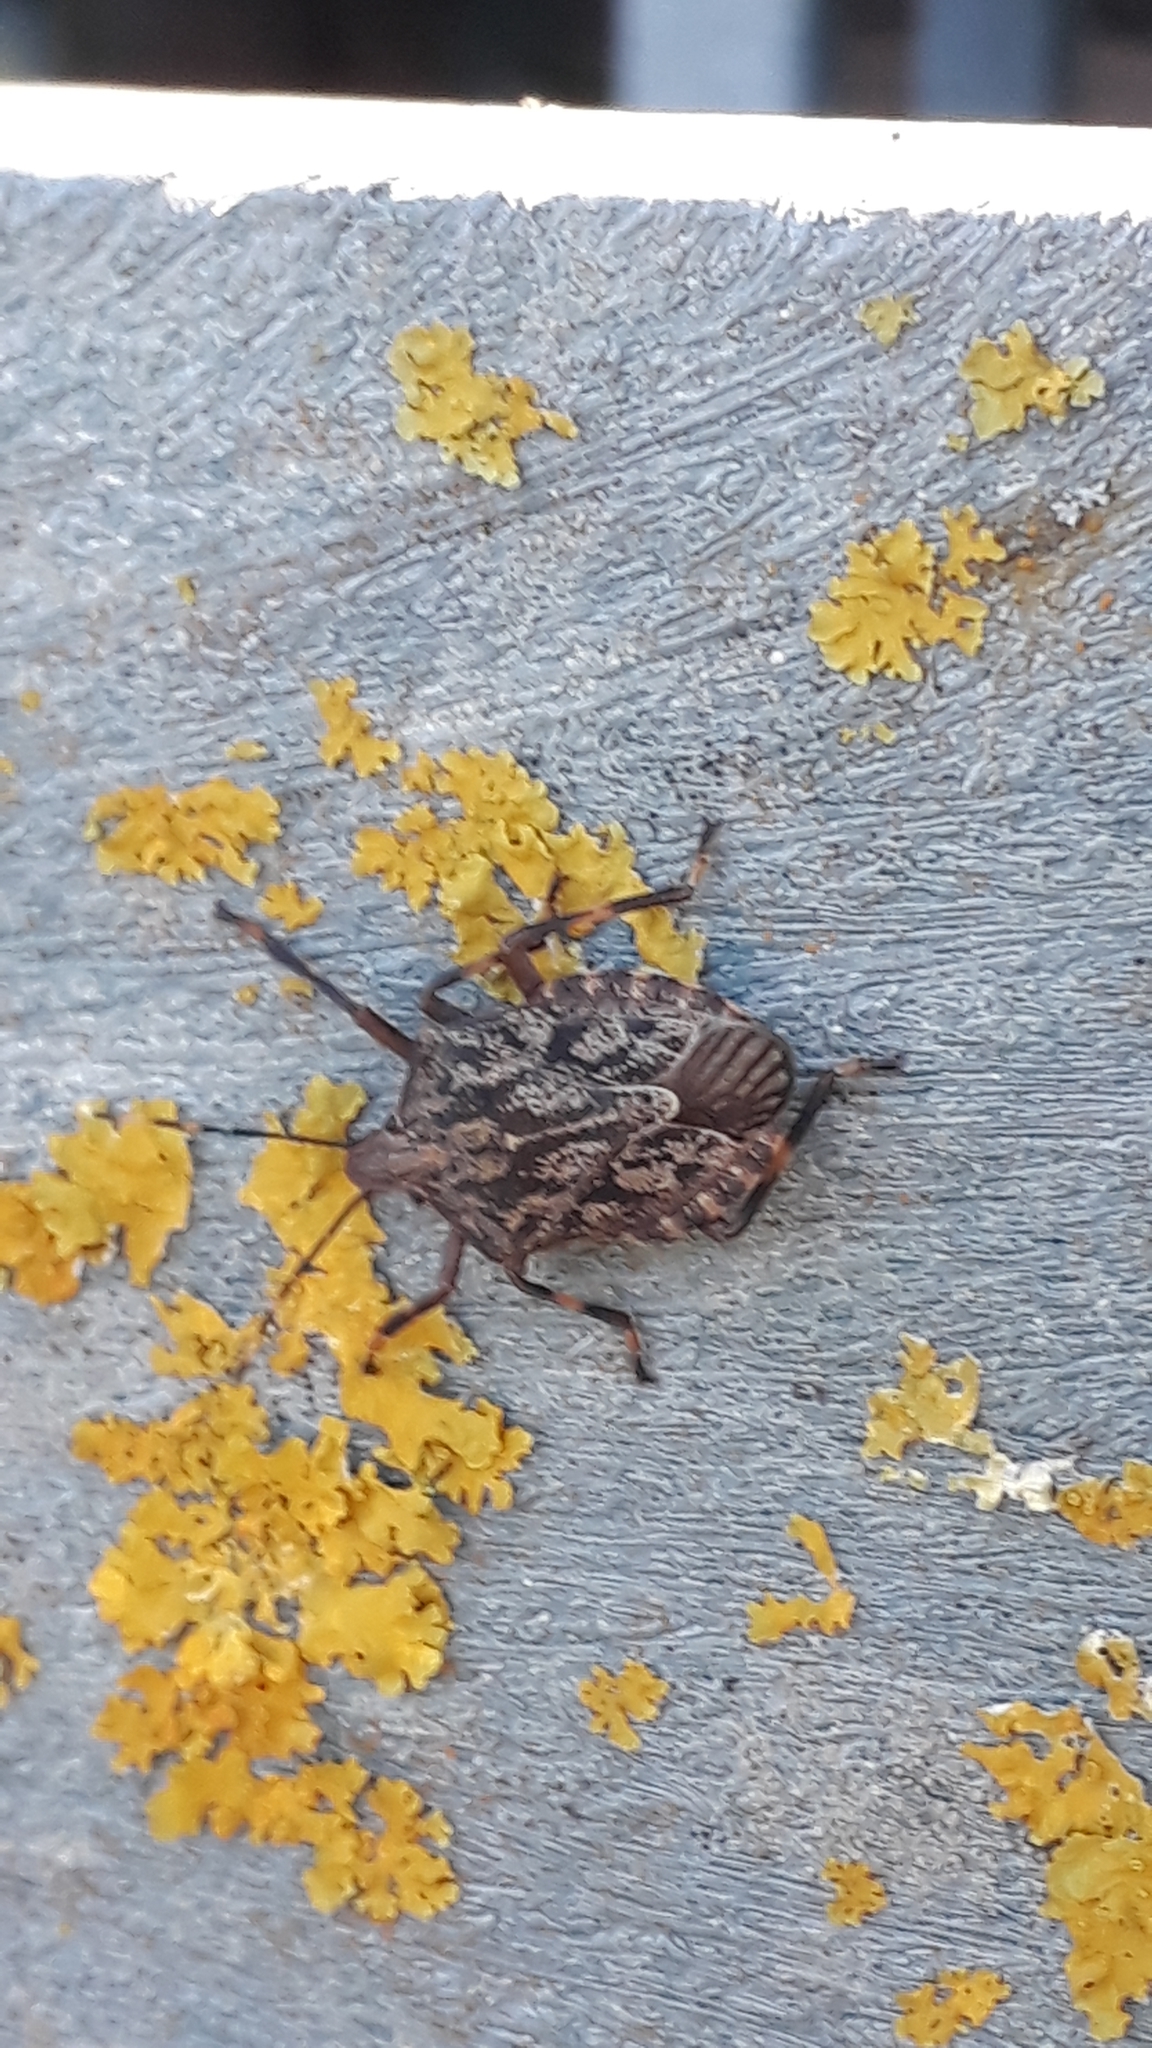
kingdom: Animalia
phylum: Arthropoda
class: Insecta
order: Hemiptera
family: Pentatomidae
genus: Coenomorpha
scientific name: Coenomorpha nervosa
